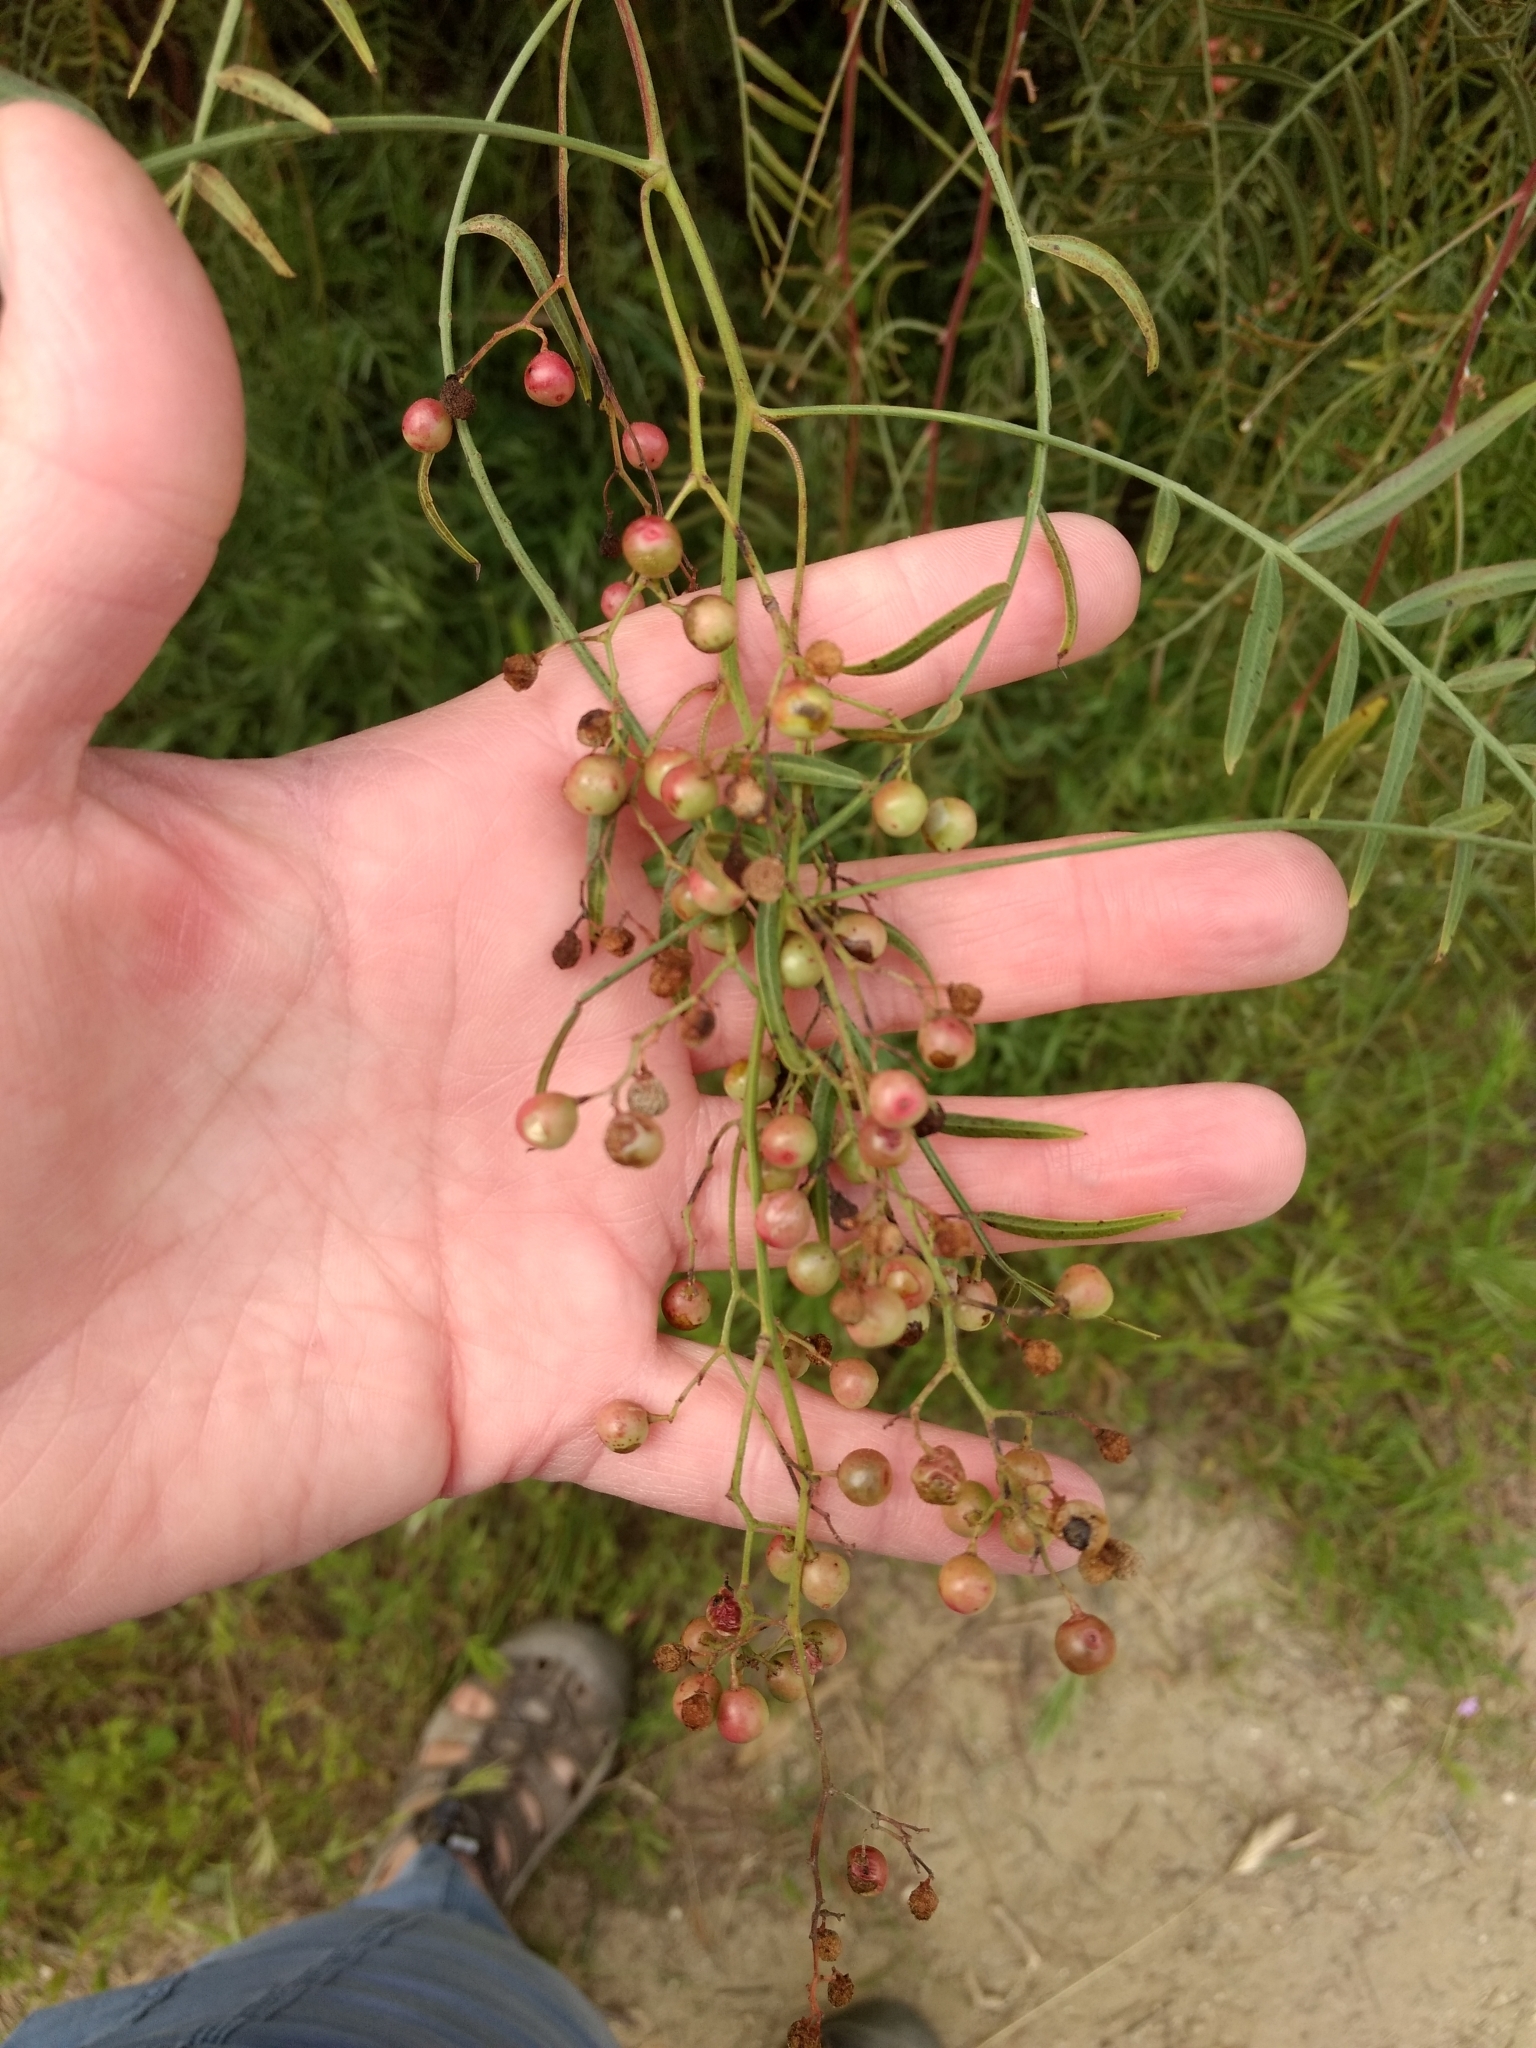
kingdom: Plantae
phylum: Tracheophyta
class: Magnoliopsida
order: Sapindales
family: Anacardiaceae
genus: Schinus
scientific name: Schinus molle
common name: Peruvian peppertree
